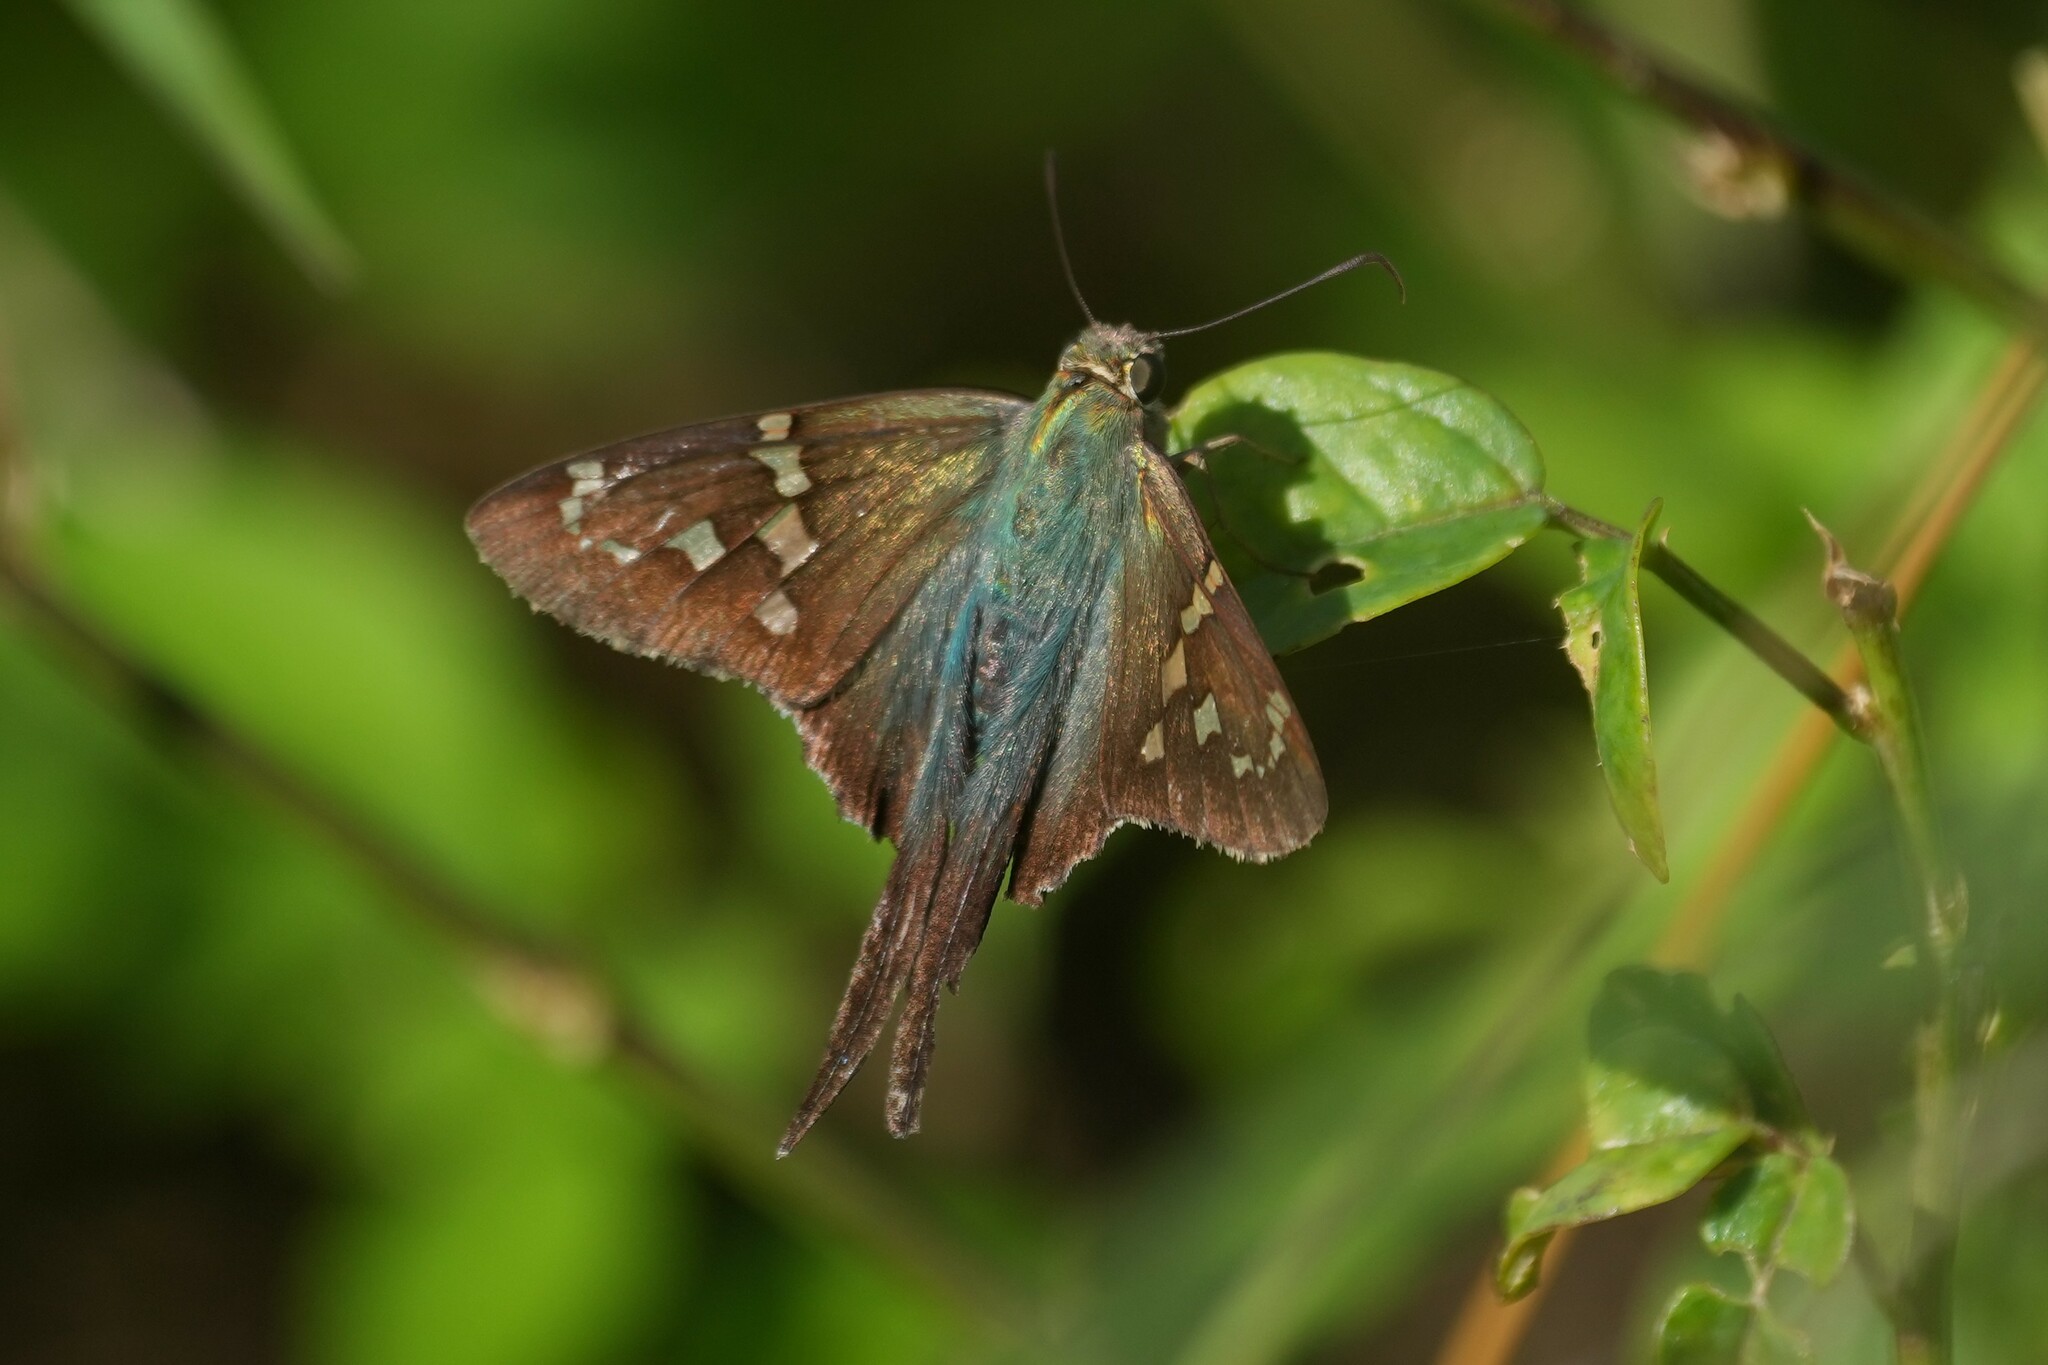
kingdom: Animalia
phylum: Arthropoda
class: Insecta
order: Lepidoptera
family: Hesperiidae
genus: Urbanus
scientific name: Urbanus proteus
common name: Long-tailed skipper
